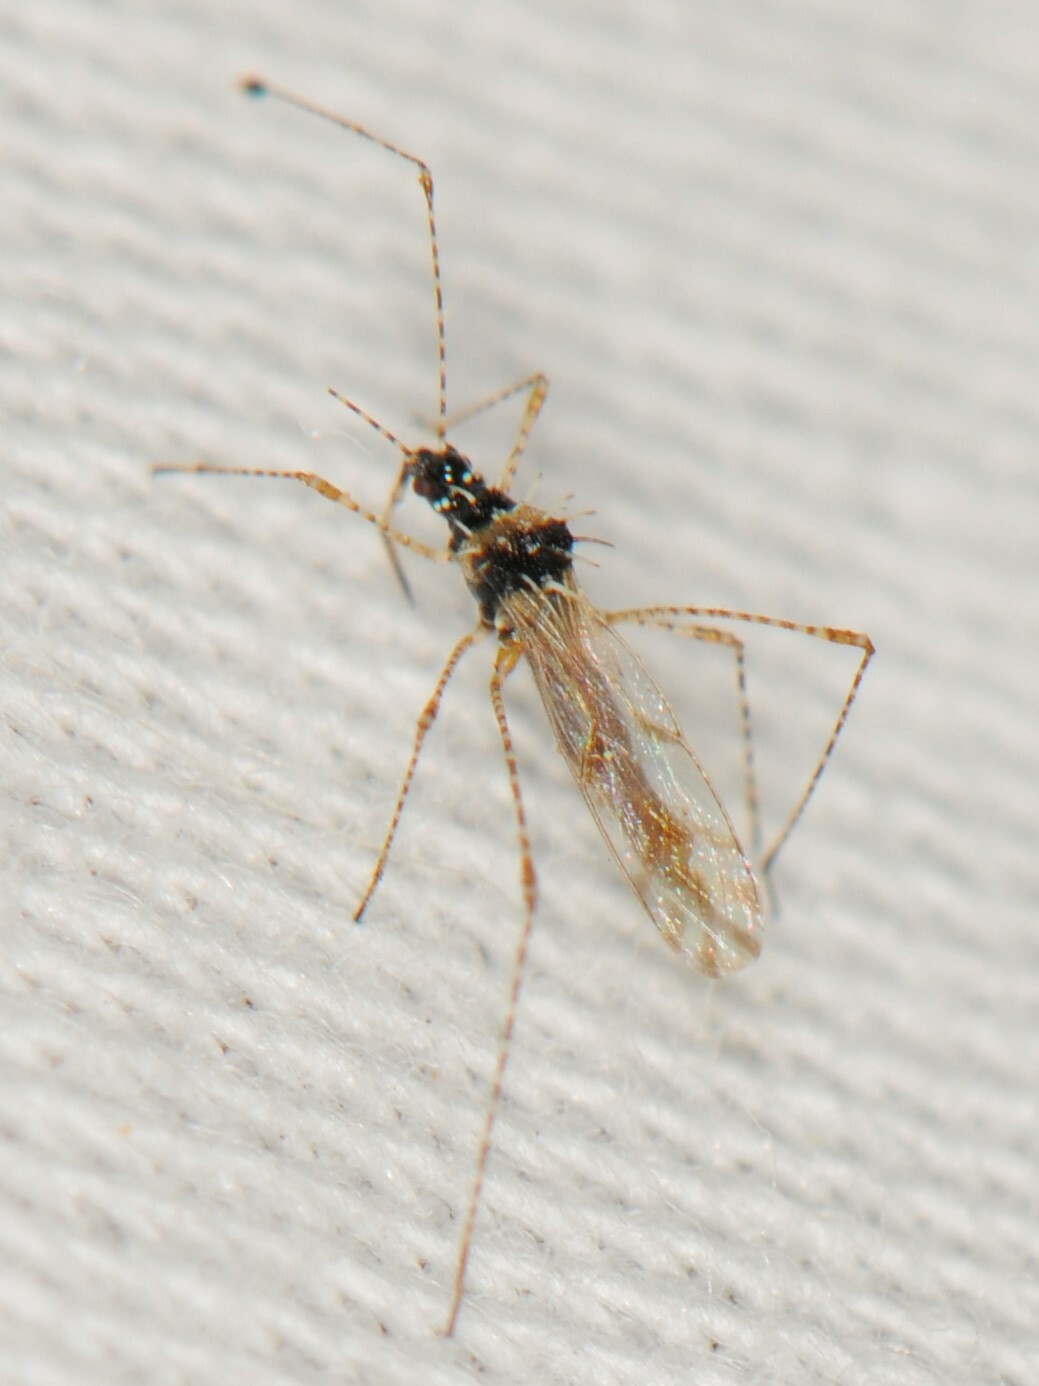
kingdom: Animalia
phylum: Arthropoda
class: Insecta
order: Hemiptera
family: Berytidae
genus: Pronotacantha
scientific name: Pronotacantha annulata
